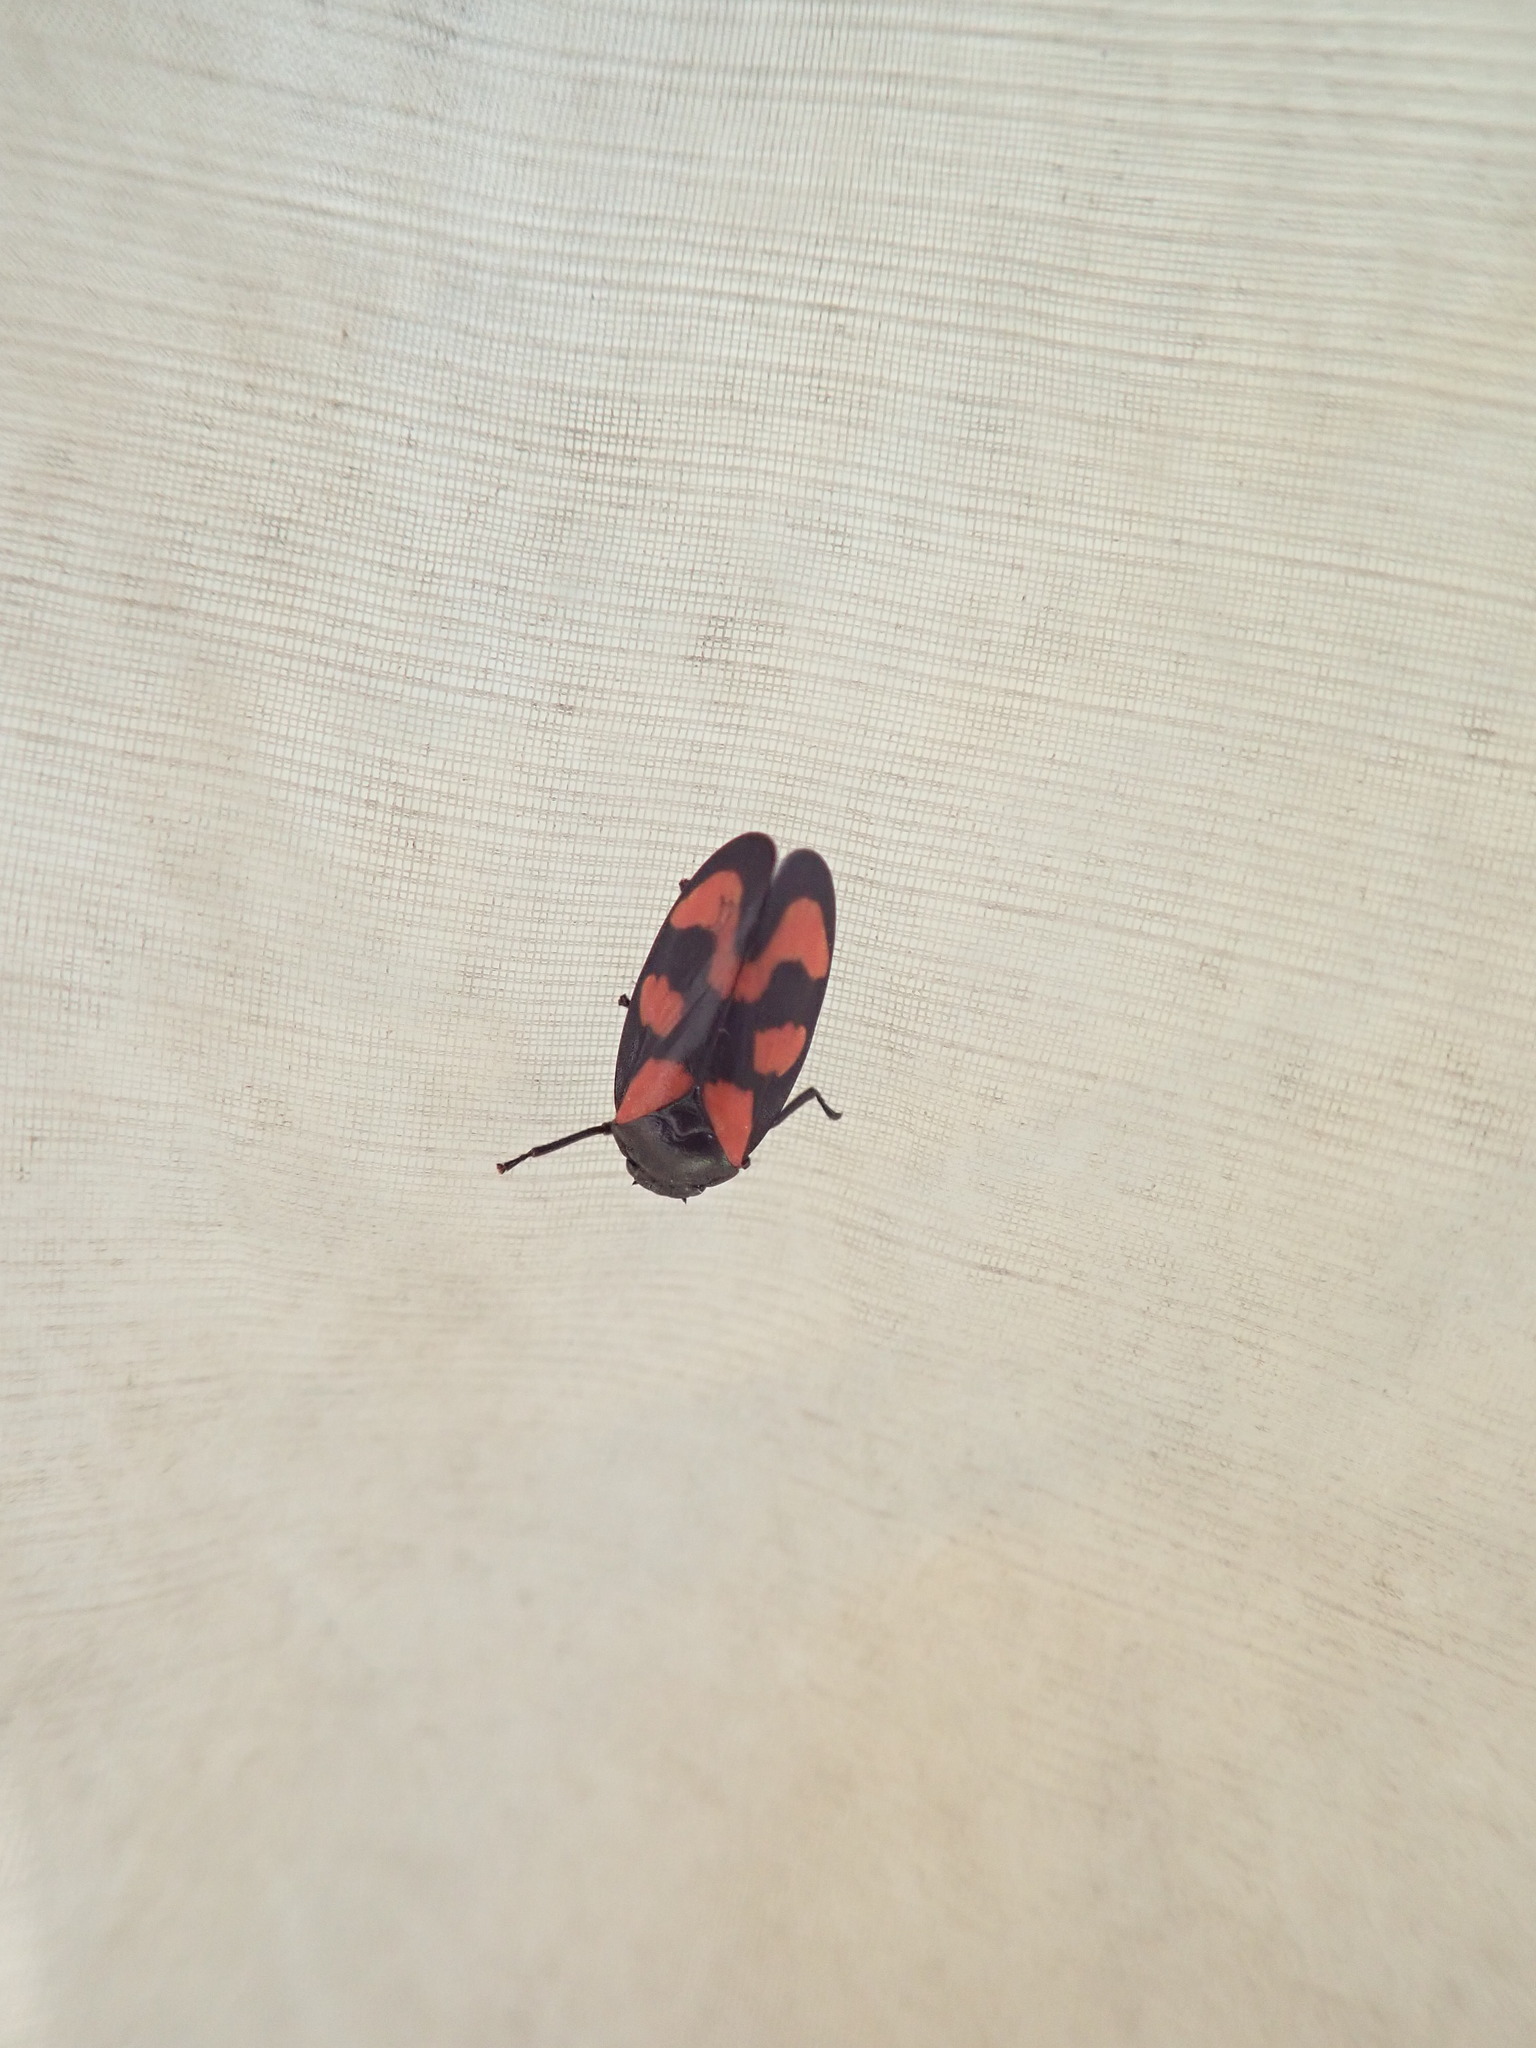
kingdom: Animalia
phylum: Arthropoda
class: Insecta
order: Hemiptera
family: Cercopidae
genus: Cercopis
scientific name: Cercopis vulnerata
